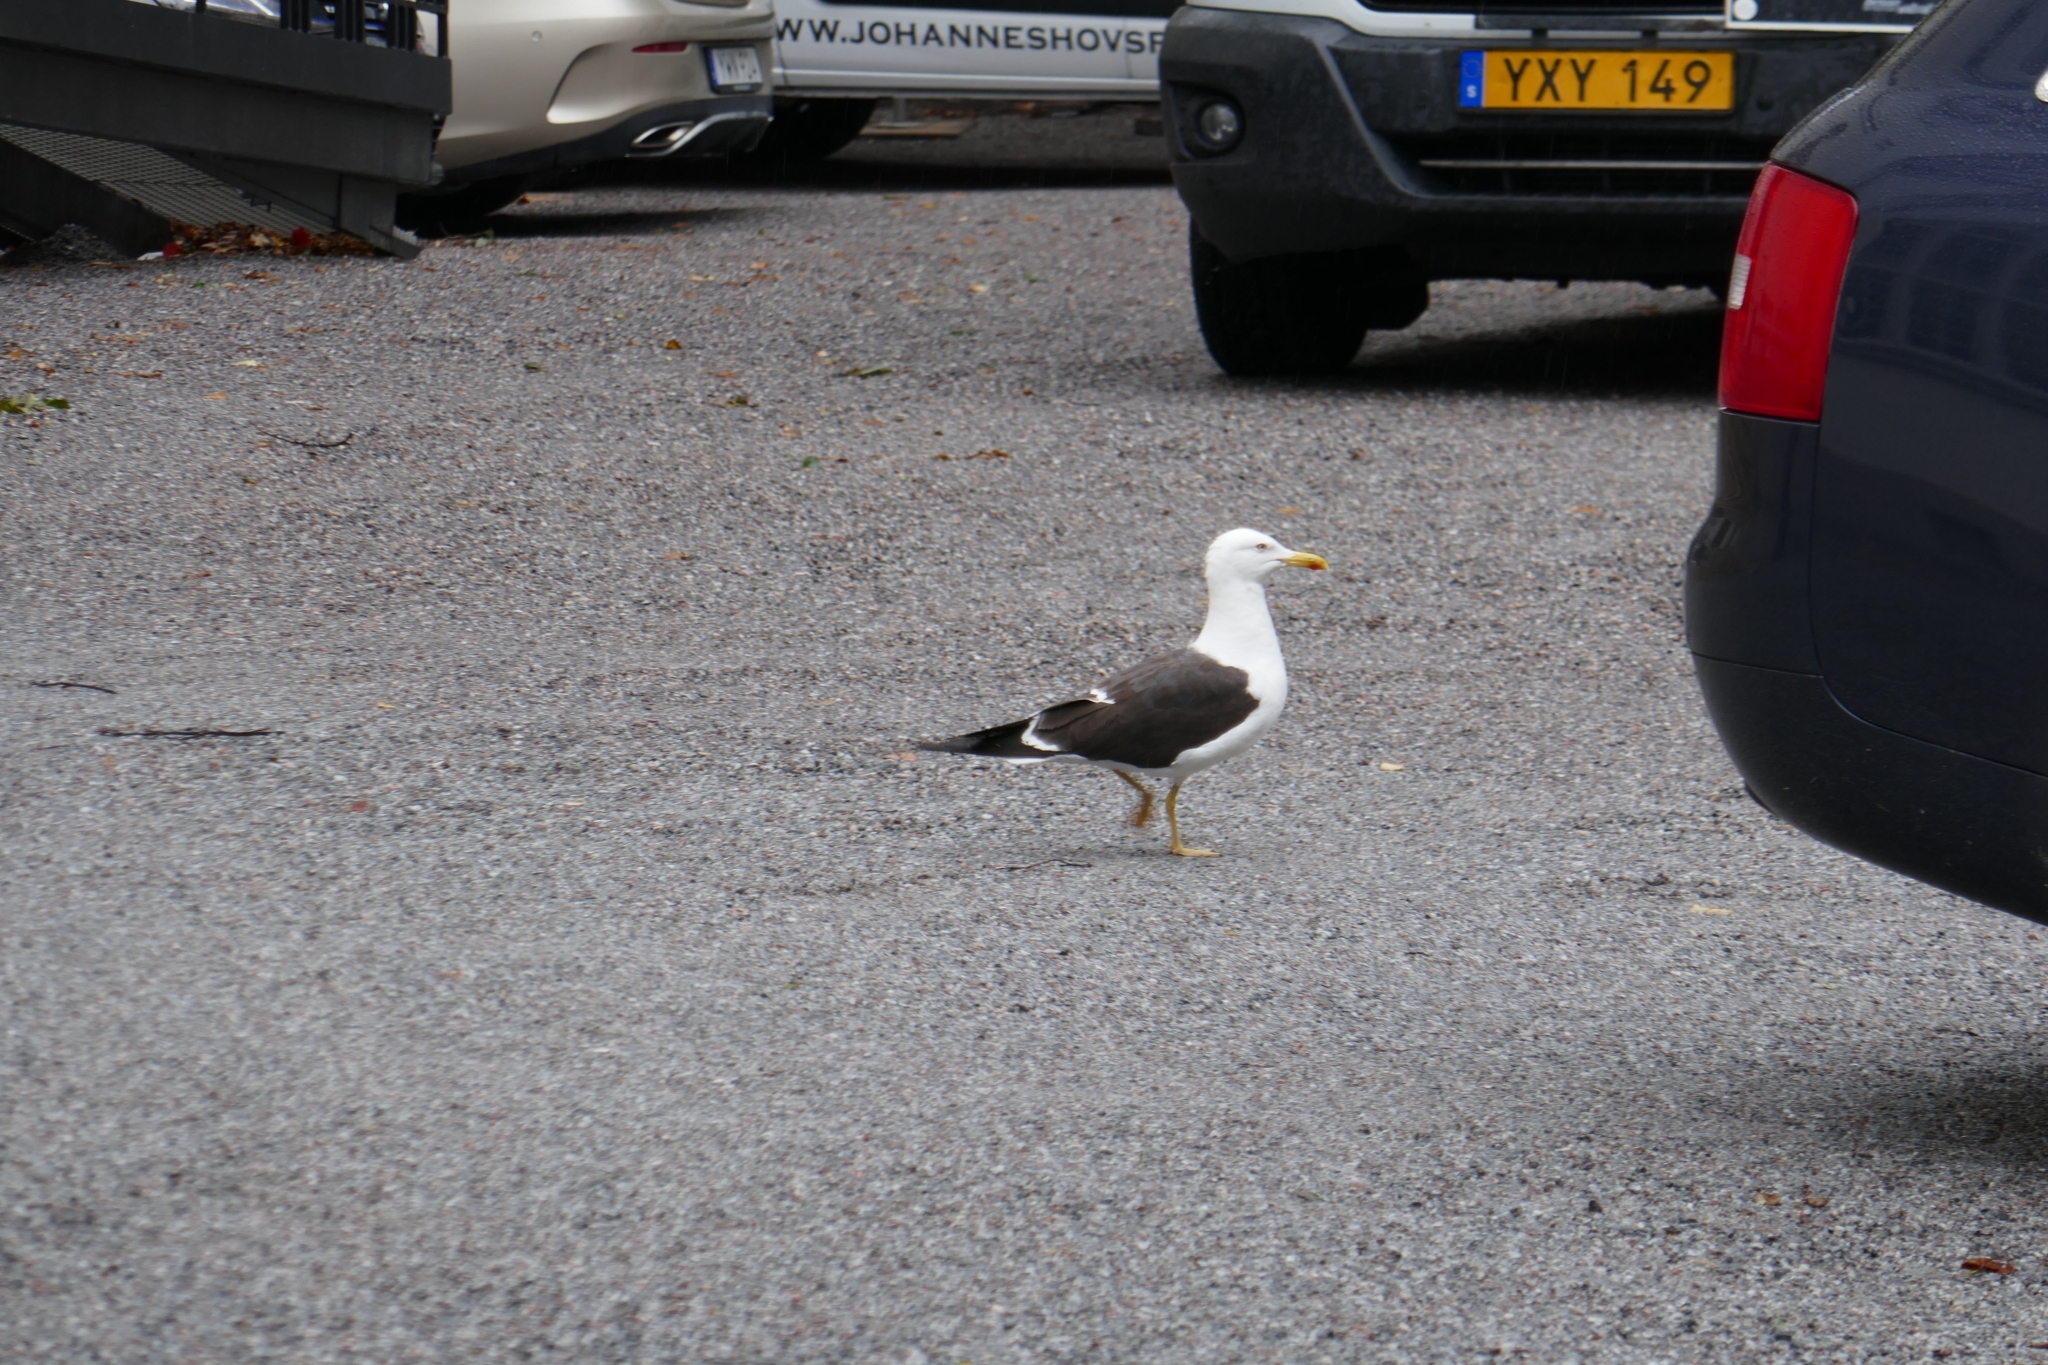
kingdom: Animalia
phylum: Chordata
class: Aves
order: Charadriiformes
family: Laridae
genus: Larus
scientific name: Larus fuscus
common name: Lesser black-backed gull
